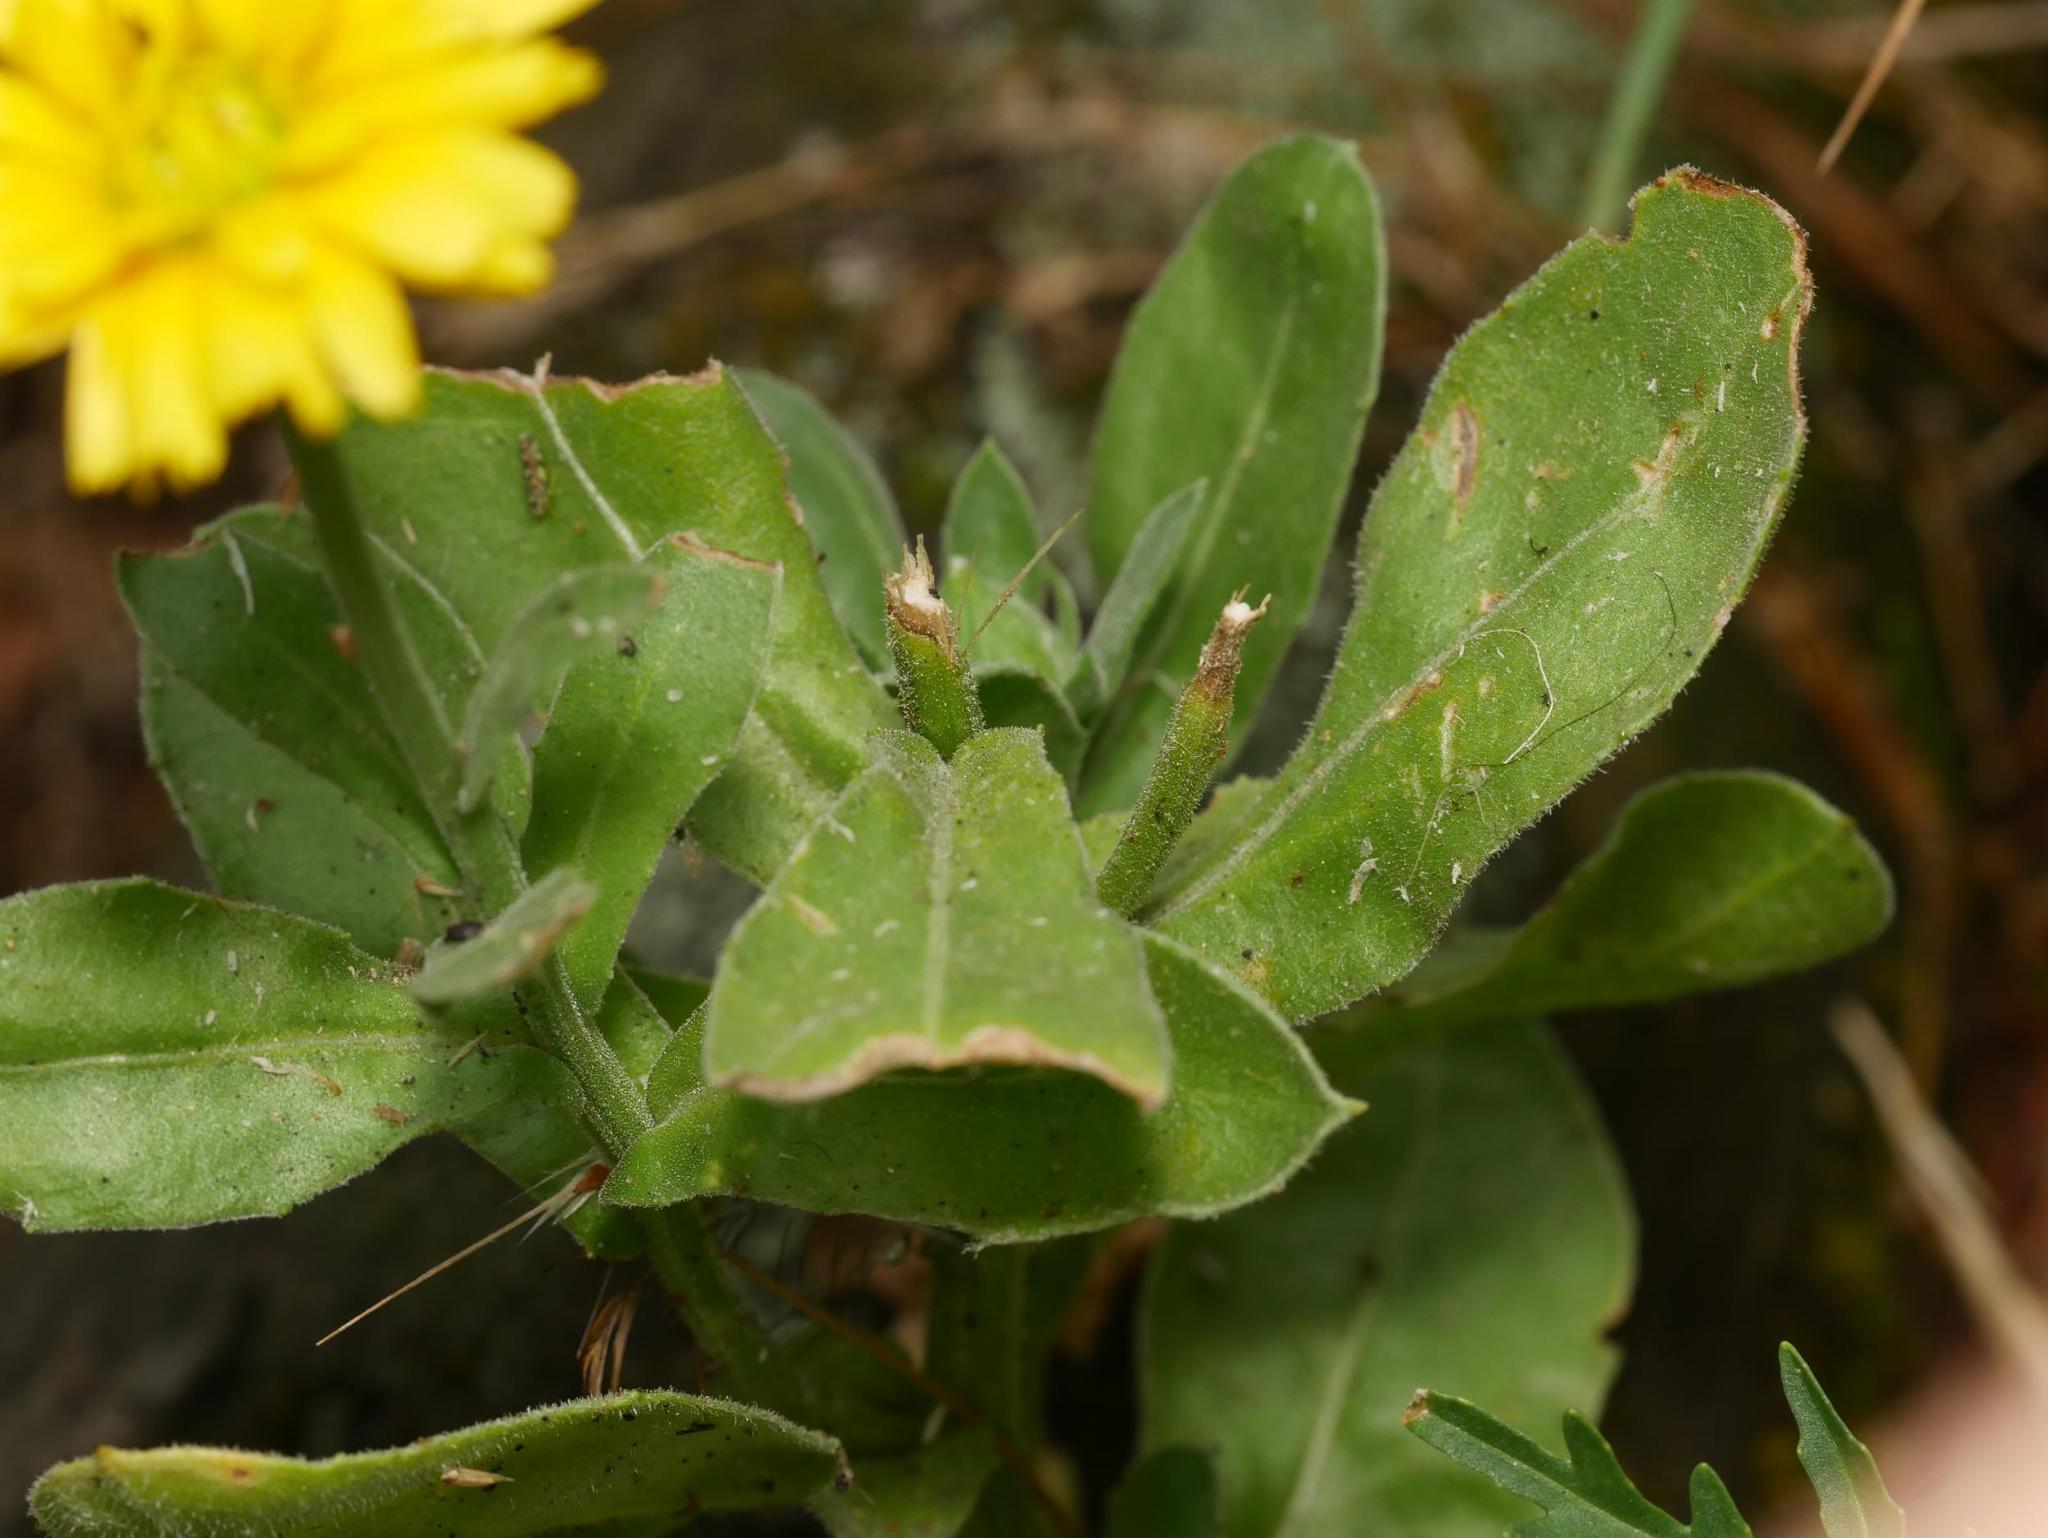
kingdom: Plantae
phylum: Tracheophyta
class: Magnoliopsida
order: Asterales
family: Asteraceae
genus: Calendula
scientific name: Calendula officinalis
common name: Pot marigold
